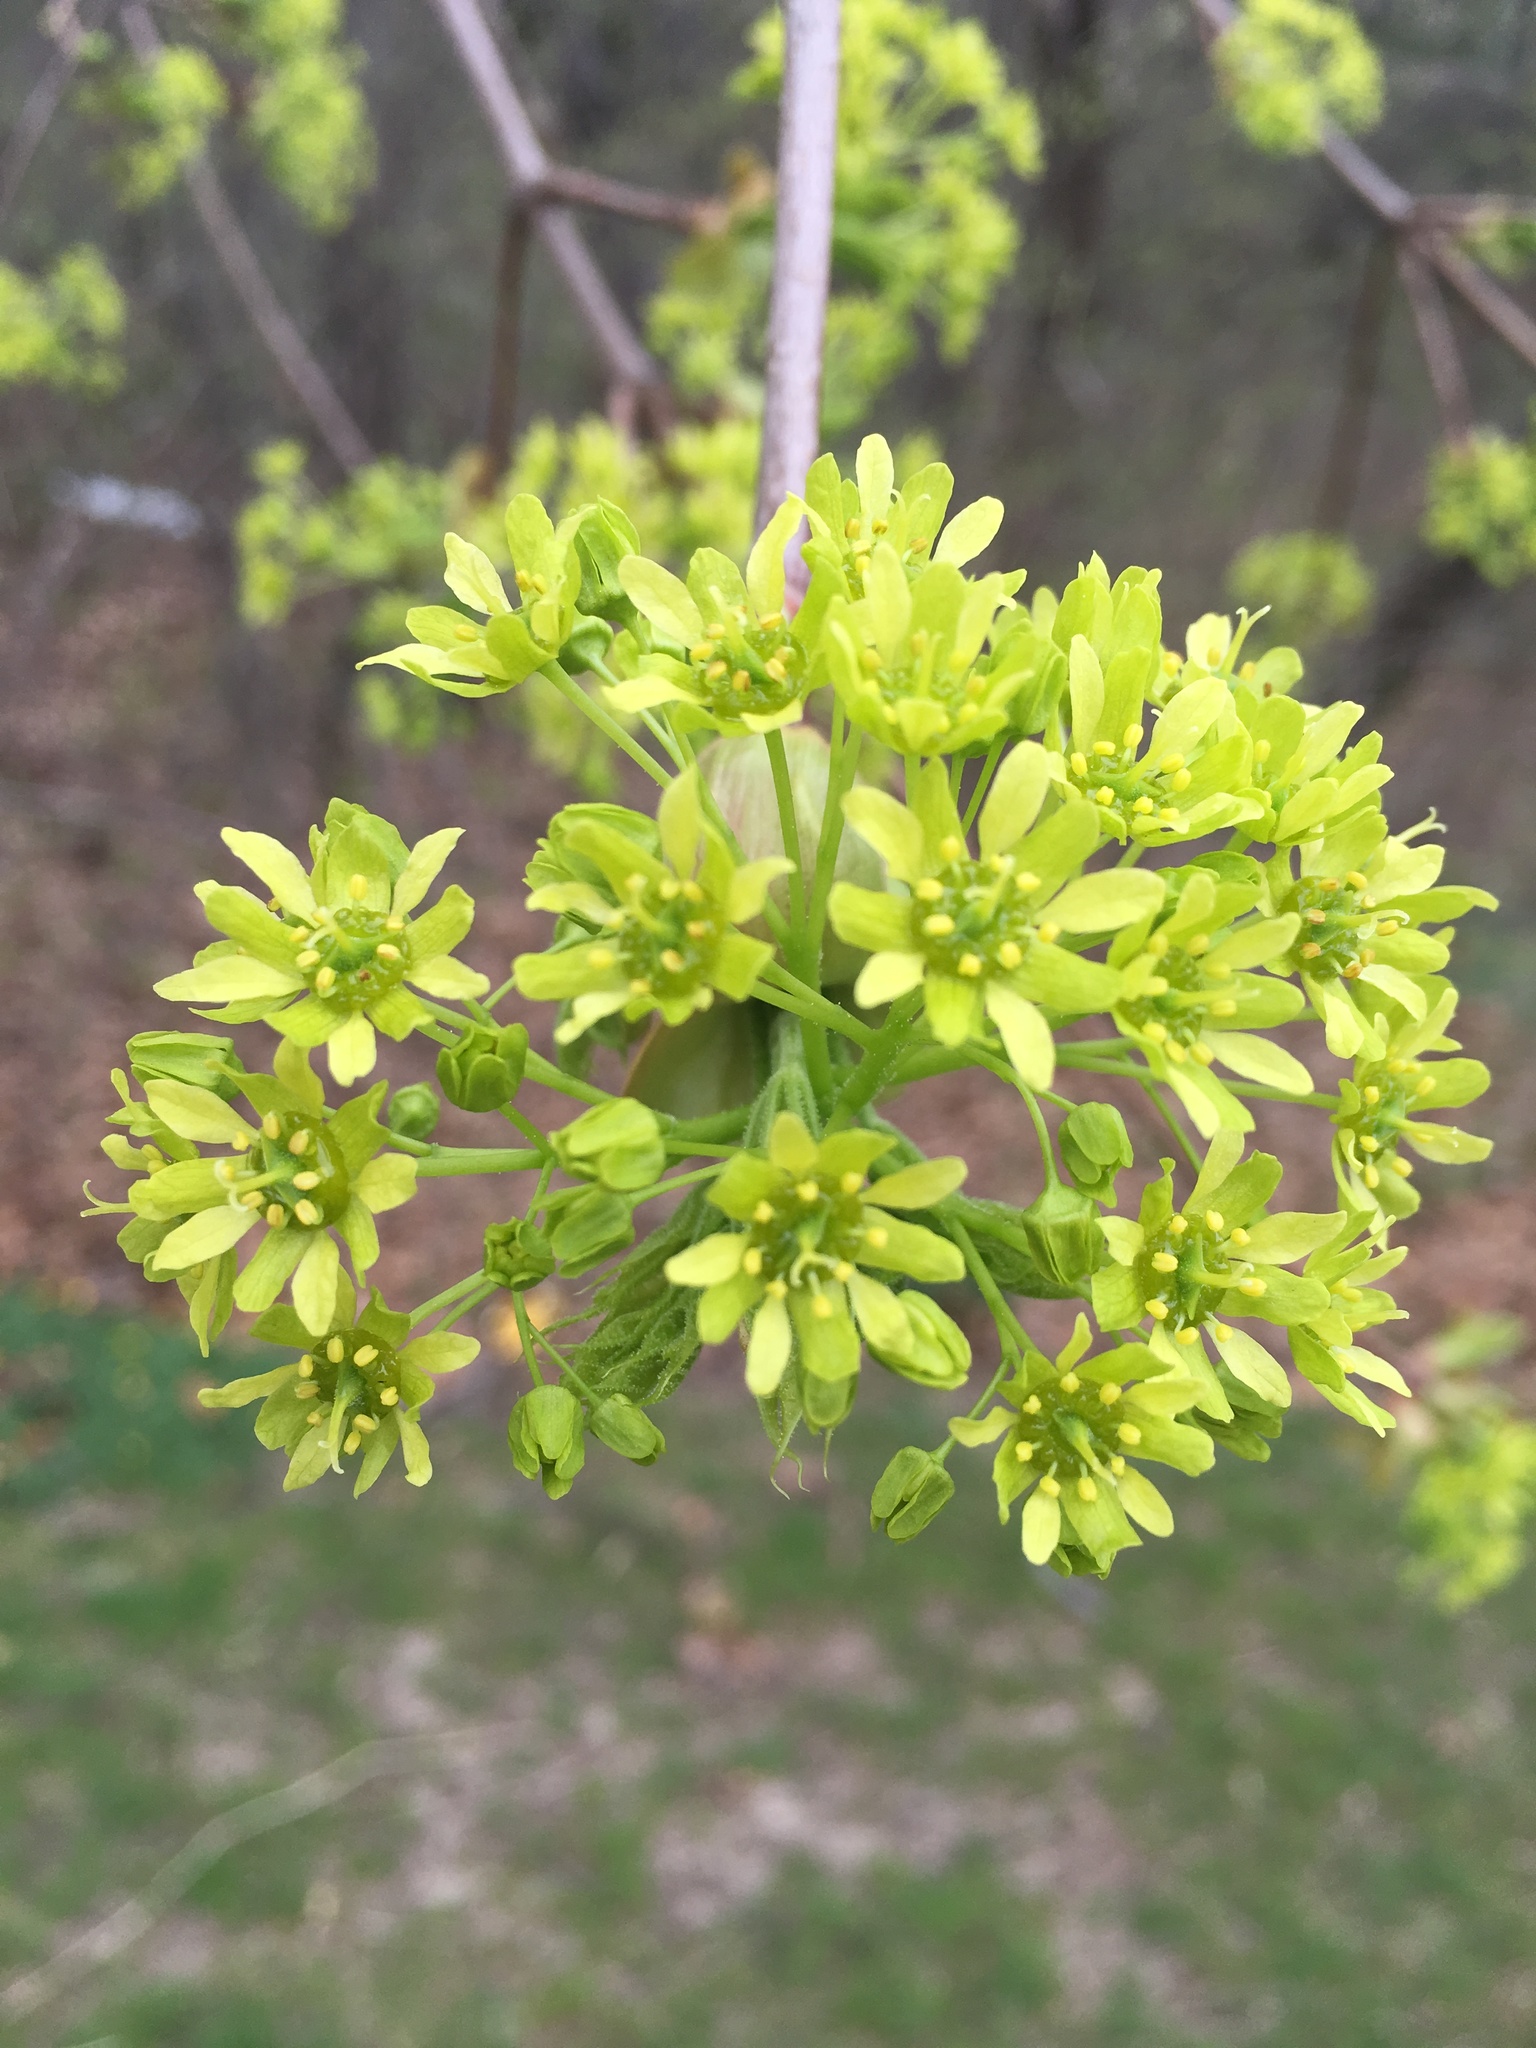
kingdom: Plantae
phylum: Tracheophyta
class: Magnoliopsida
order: Sapindales
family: Sapindaceae
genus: Acer
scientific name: Acer platanoides
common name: Norway maple
